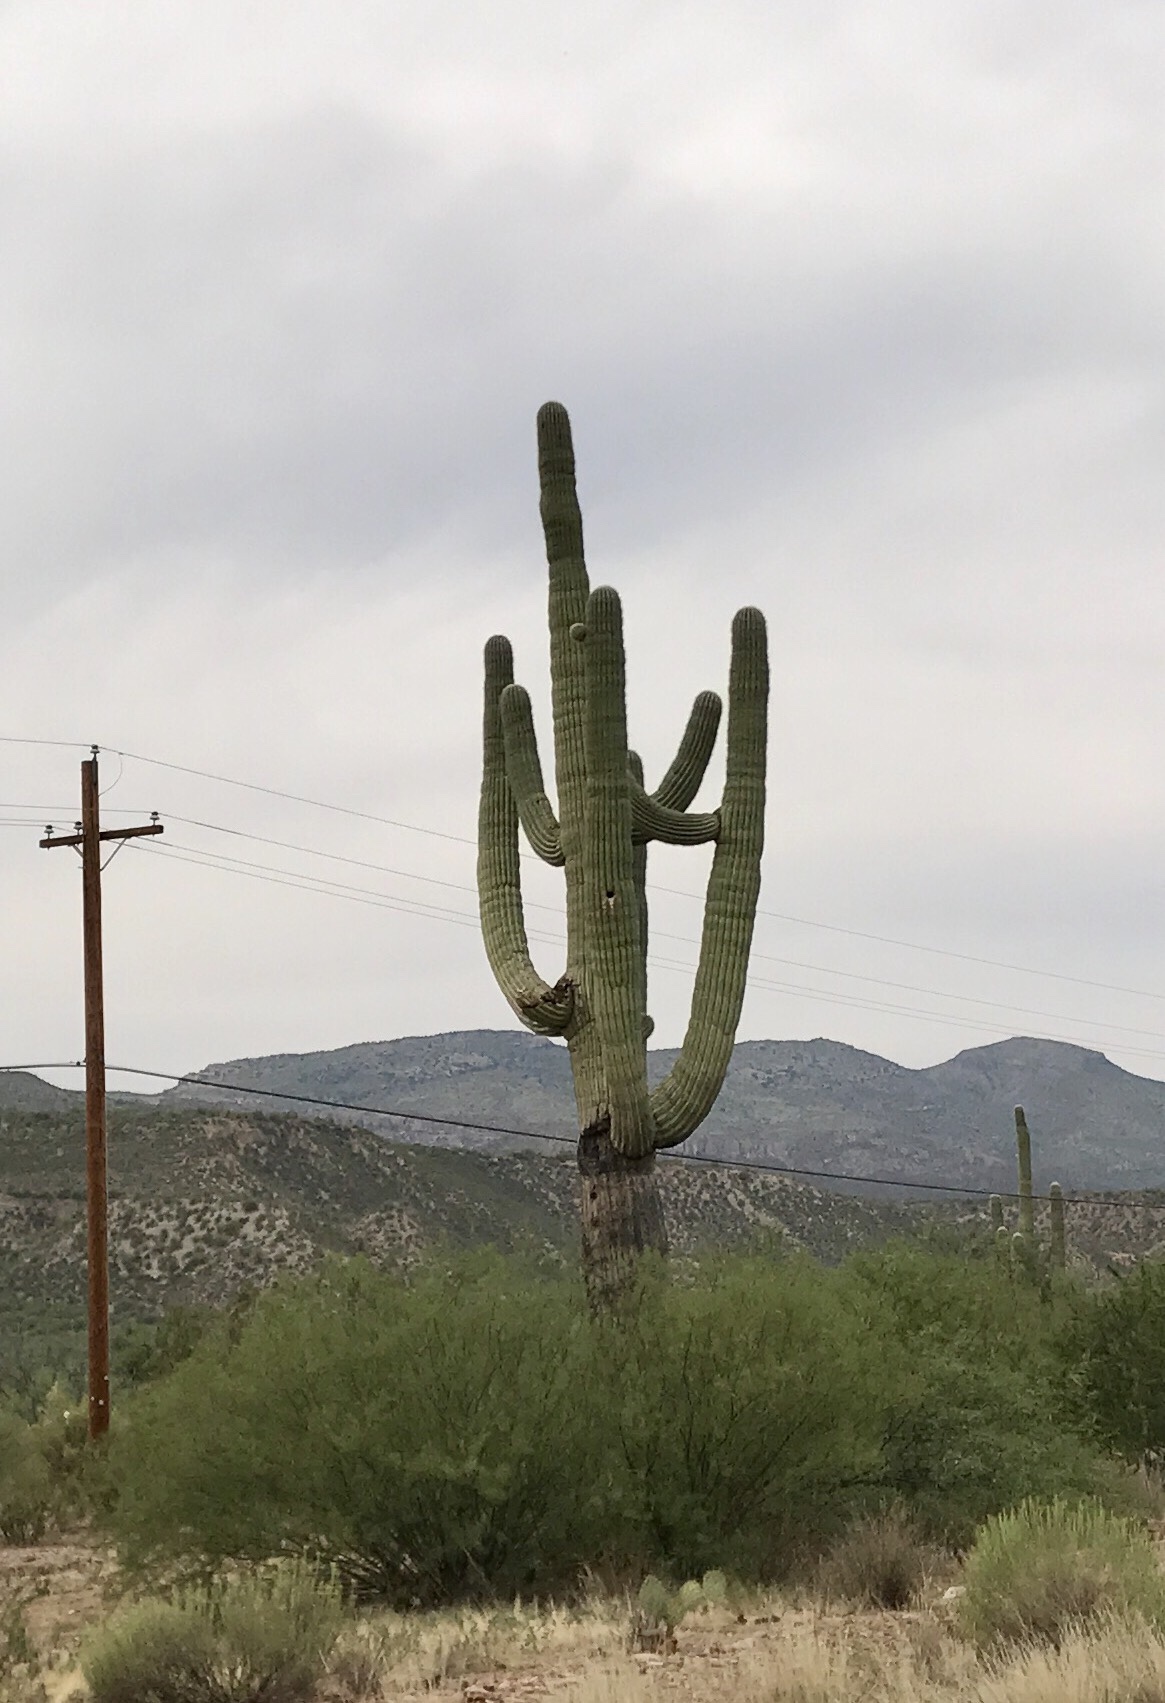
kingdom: Plantae
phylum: Tracheophyta
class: Magnoliopsida
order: Caryophyllales
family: Cactaceae
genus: Carnegiea
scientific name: Carnegiea gigantea
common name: Saguaro
